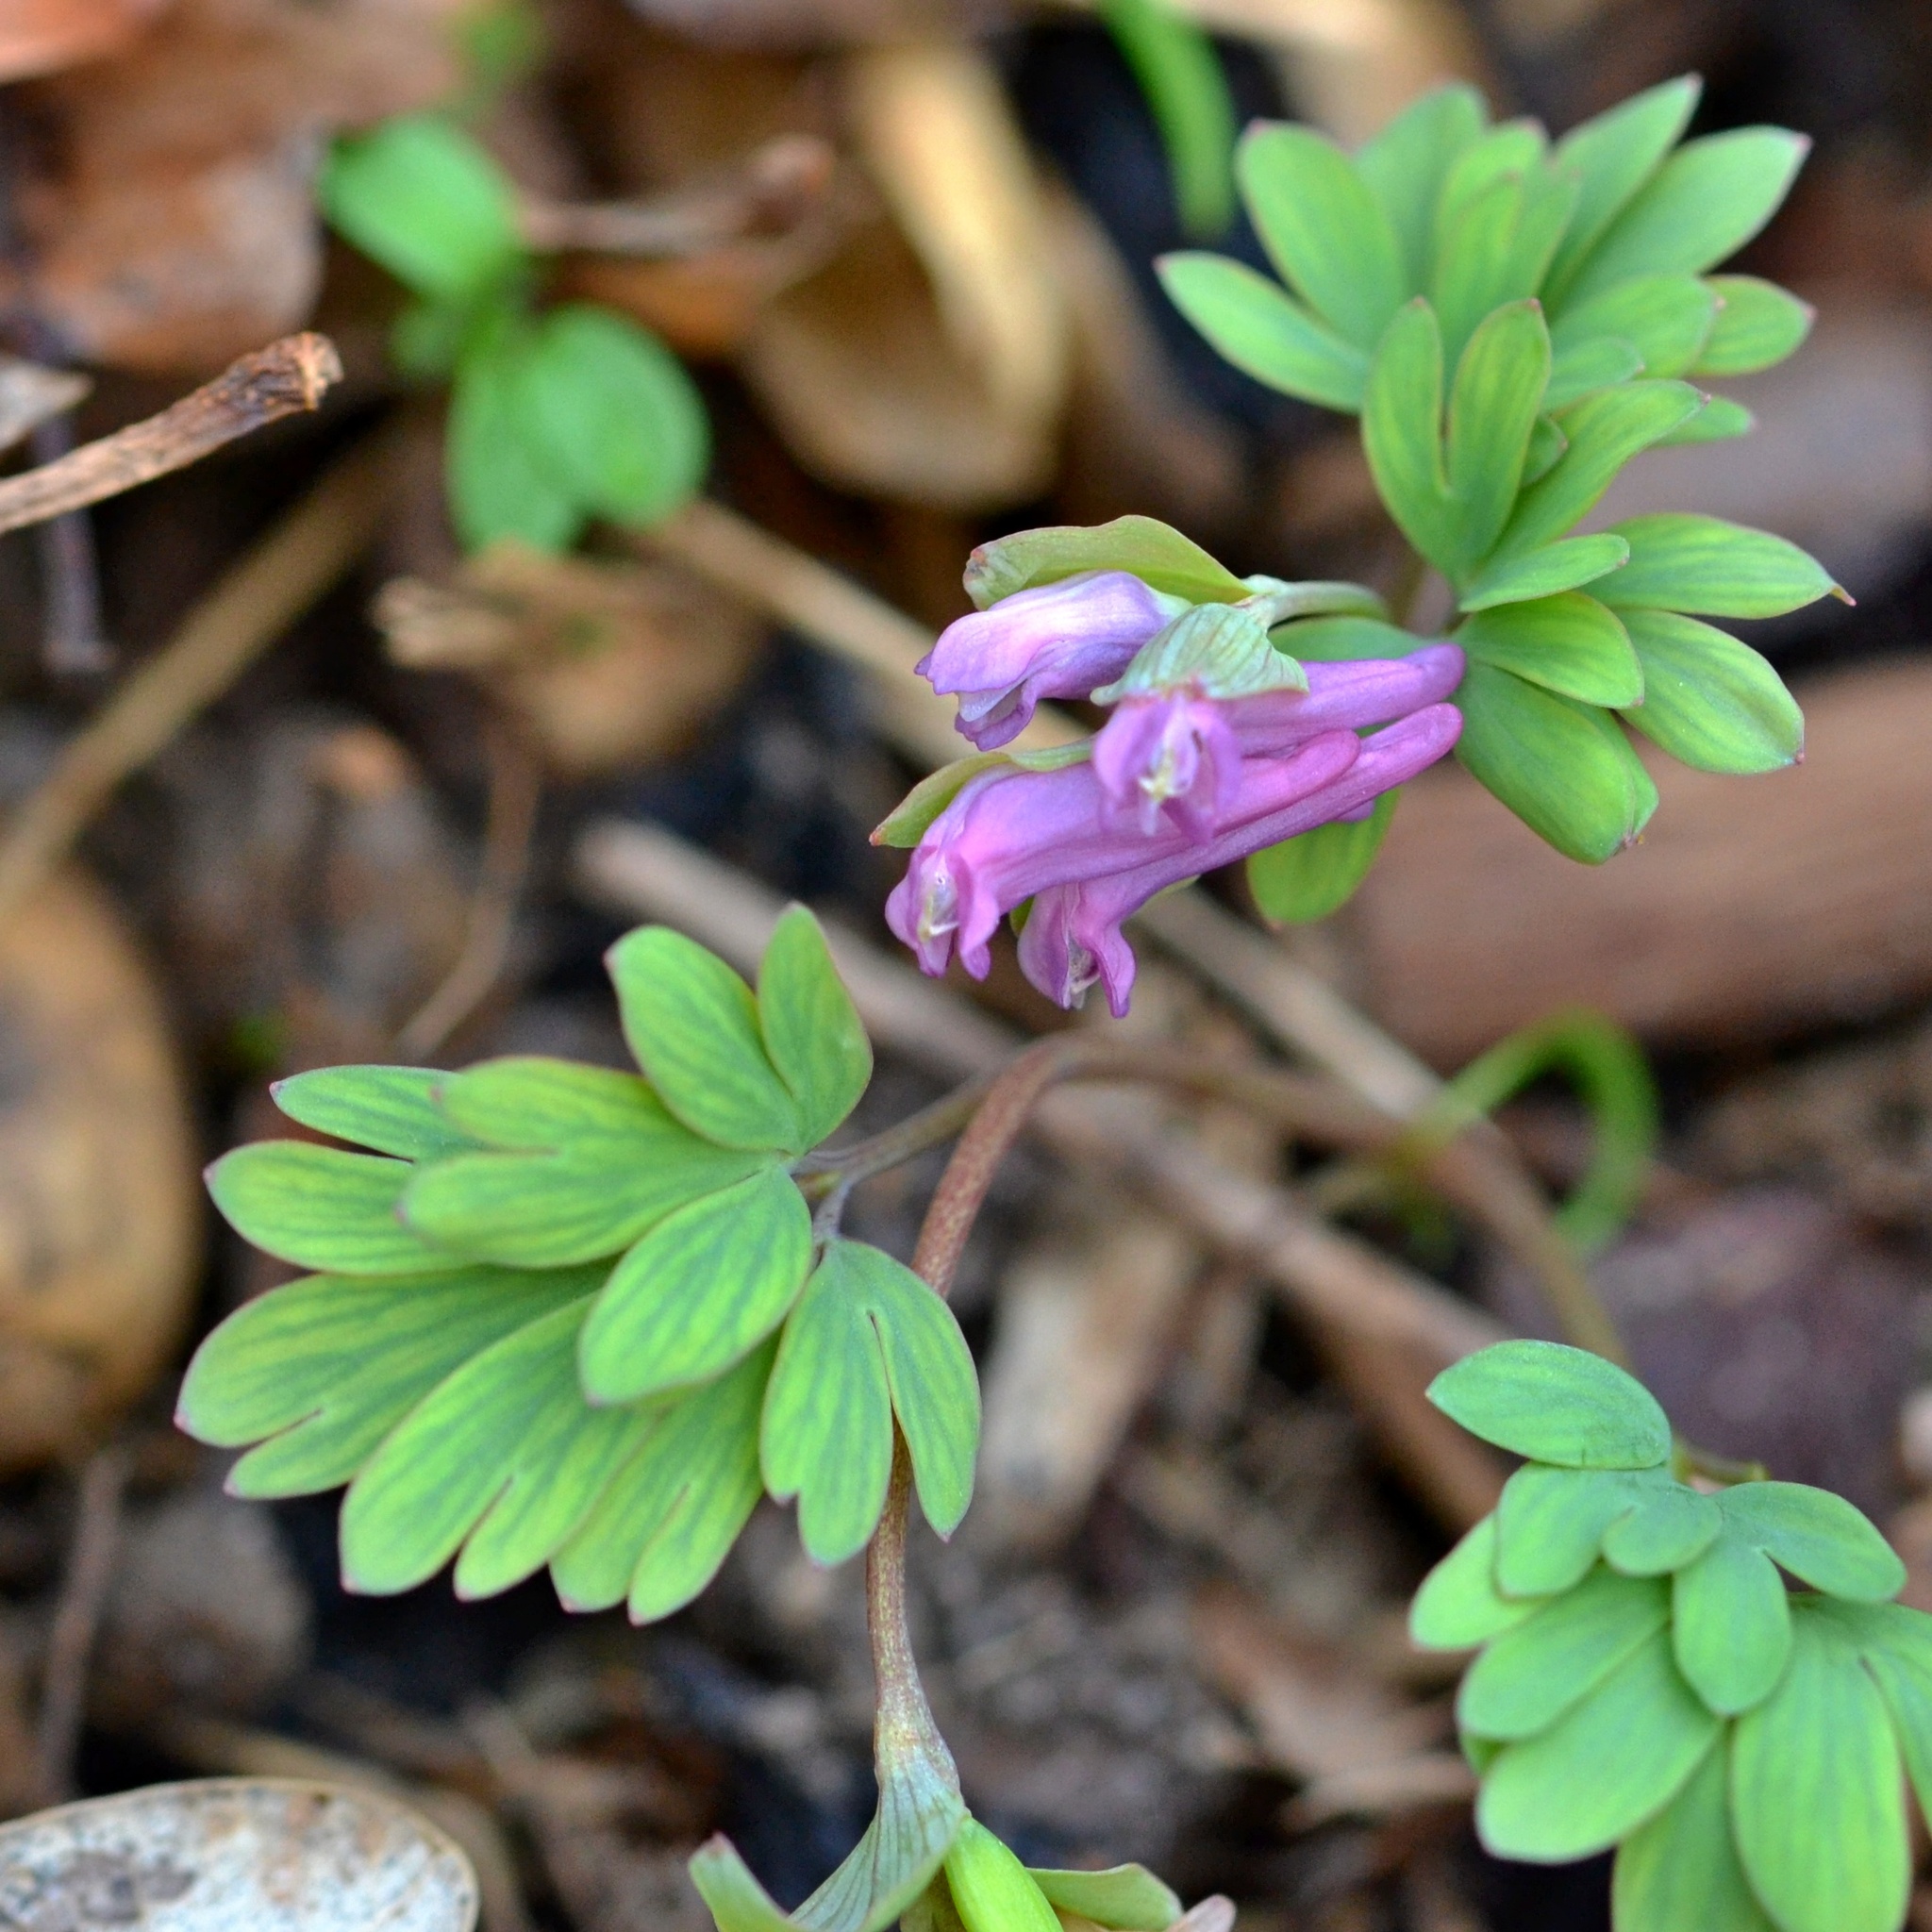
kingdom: Plantae
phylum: Tracheophyta
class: Magnoliopsida
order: Ranunculales
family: Papaveraceae
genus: Corydalis
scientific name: Corydalis intermedia
